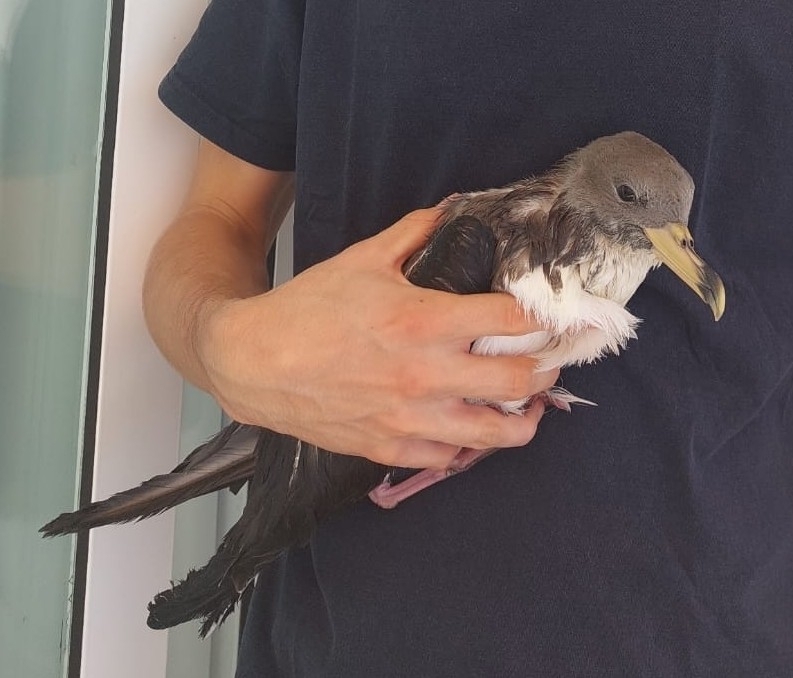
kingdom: Animalia
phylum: Chordata
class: Aves
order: Procellariiformes
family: Procellariidae
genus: Calonectris
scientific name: Calonectris diomedea
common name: Cory's shearwater
